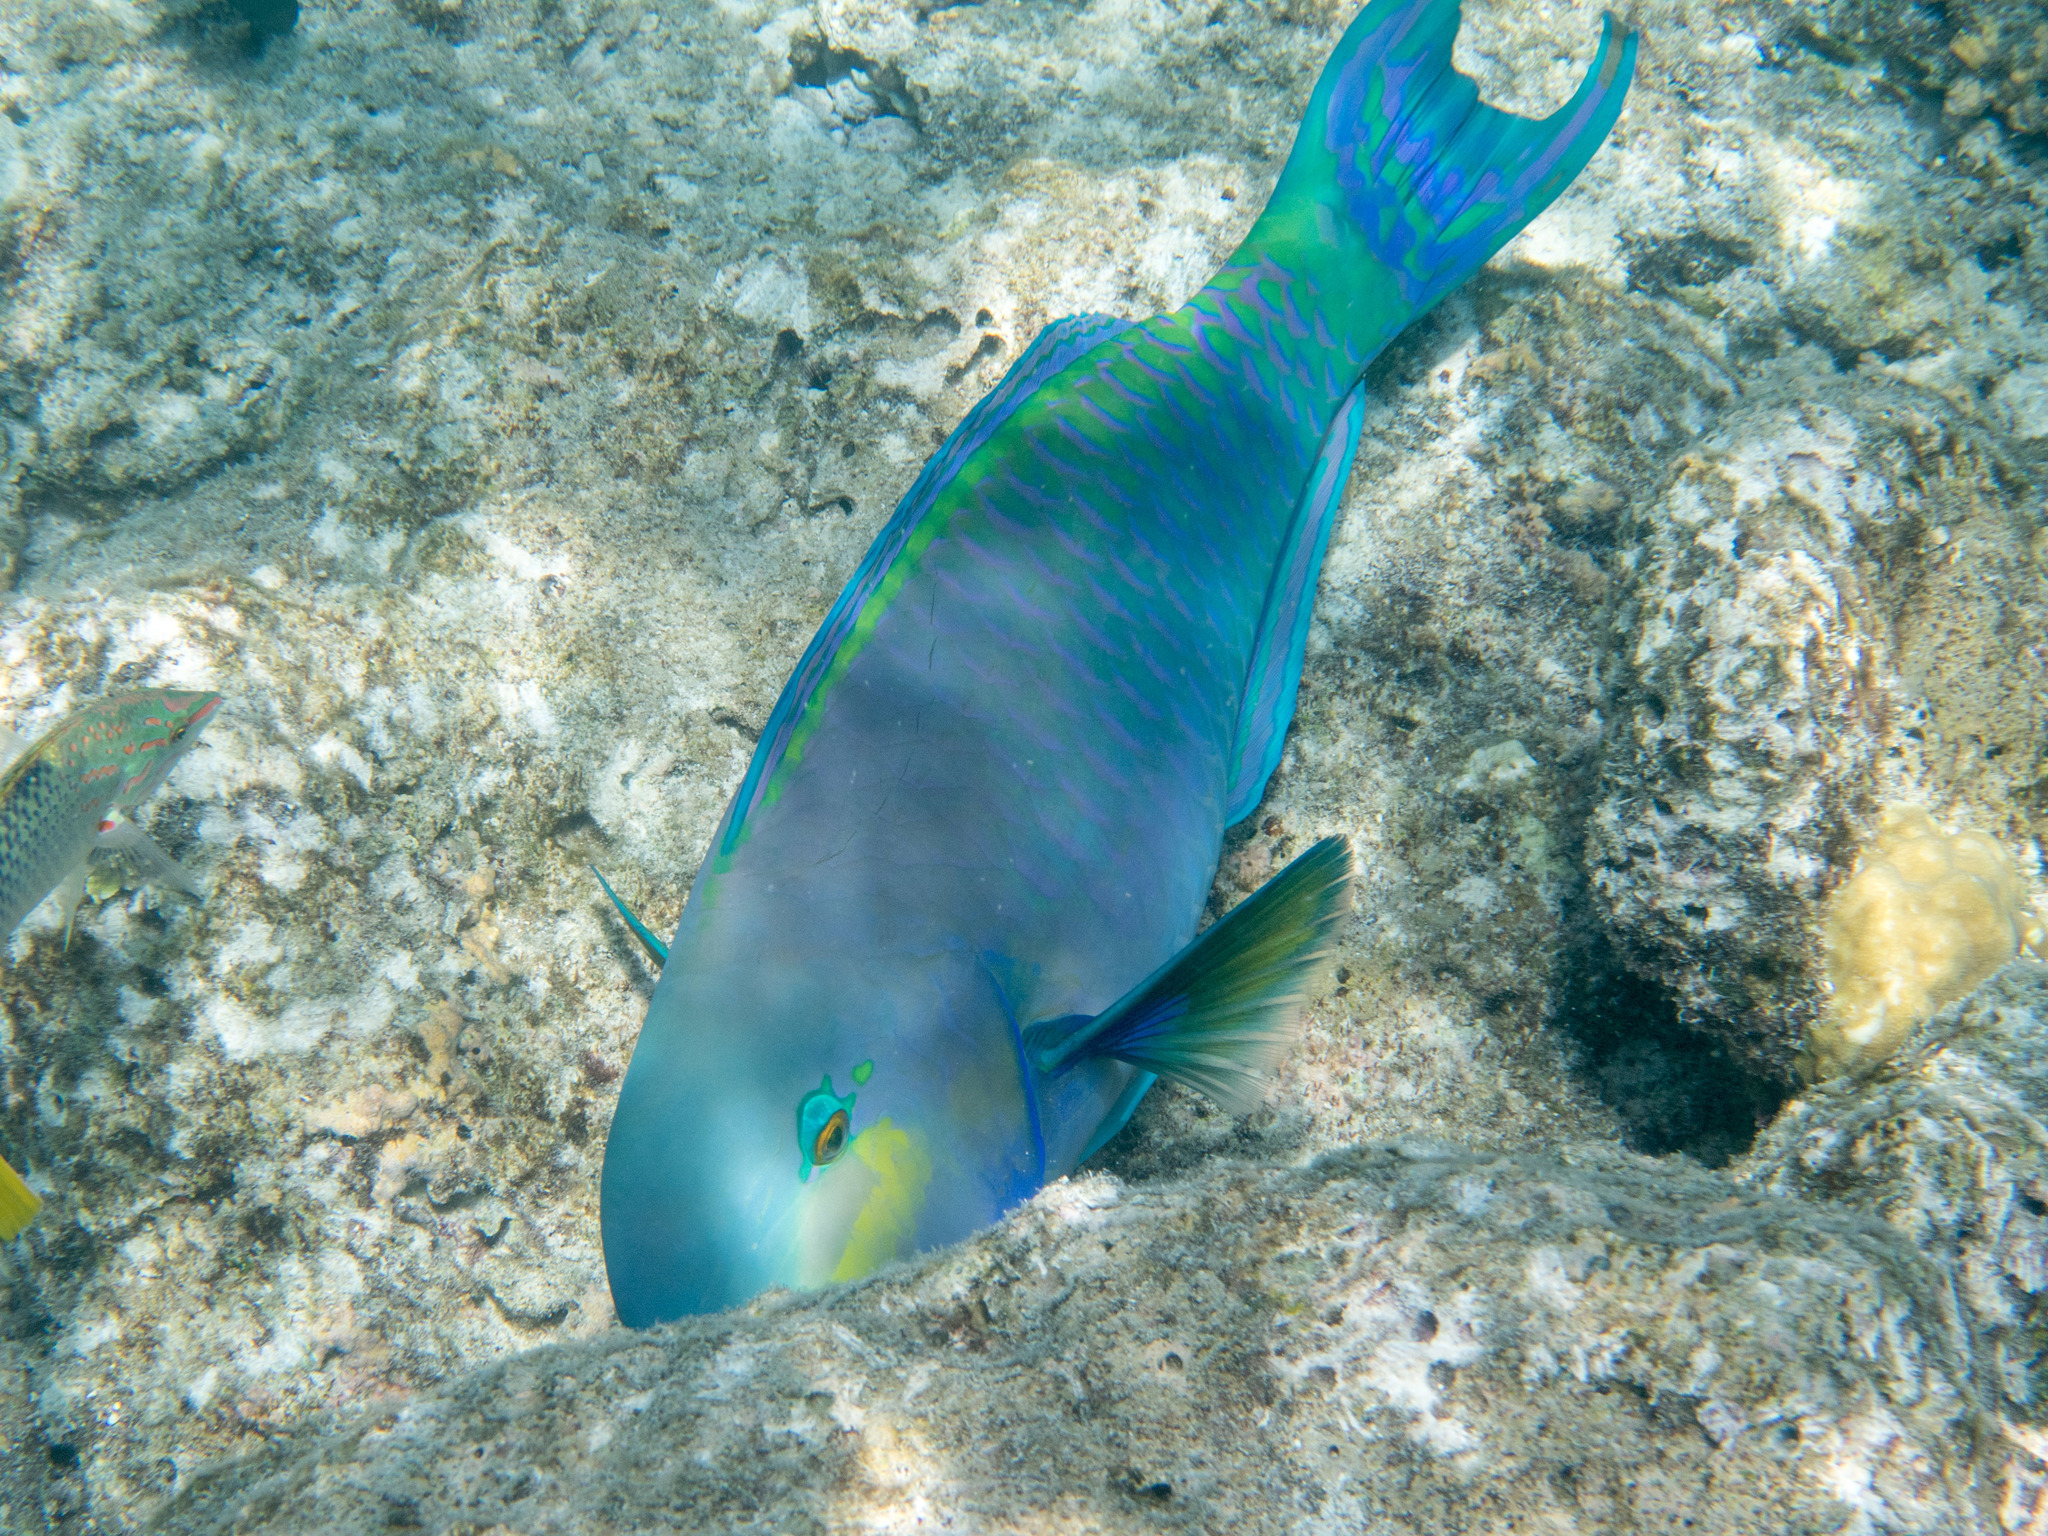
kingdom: Animalia
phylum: Chordata
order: Perciformes
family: Scaridae
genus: Chlorurus
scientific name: Chlorurus strongylocephalus
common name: Steephead parrotfish
